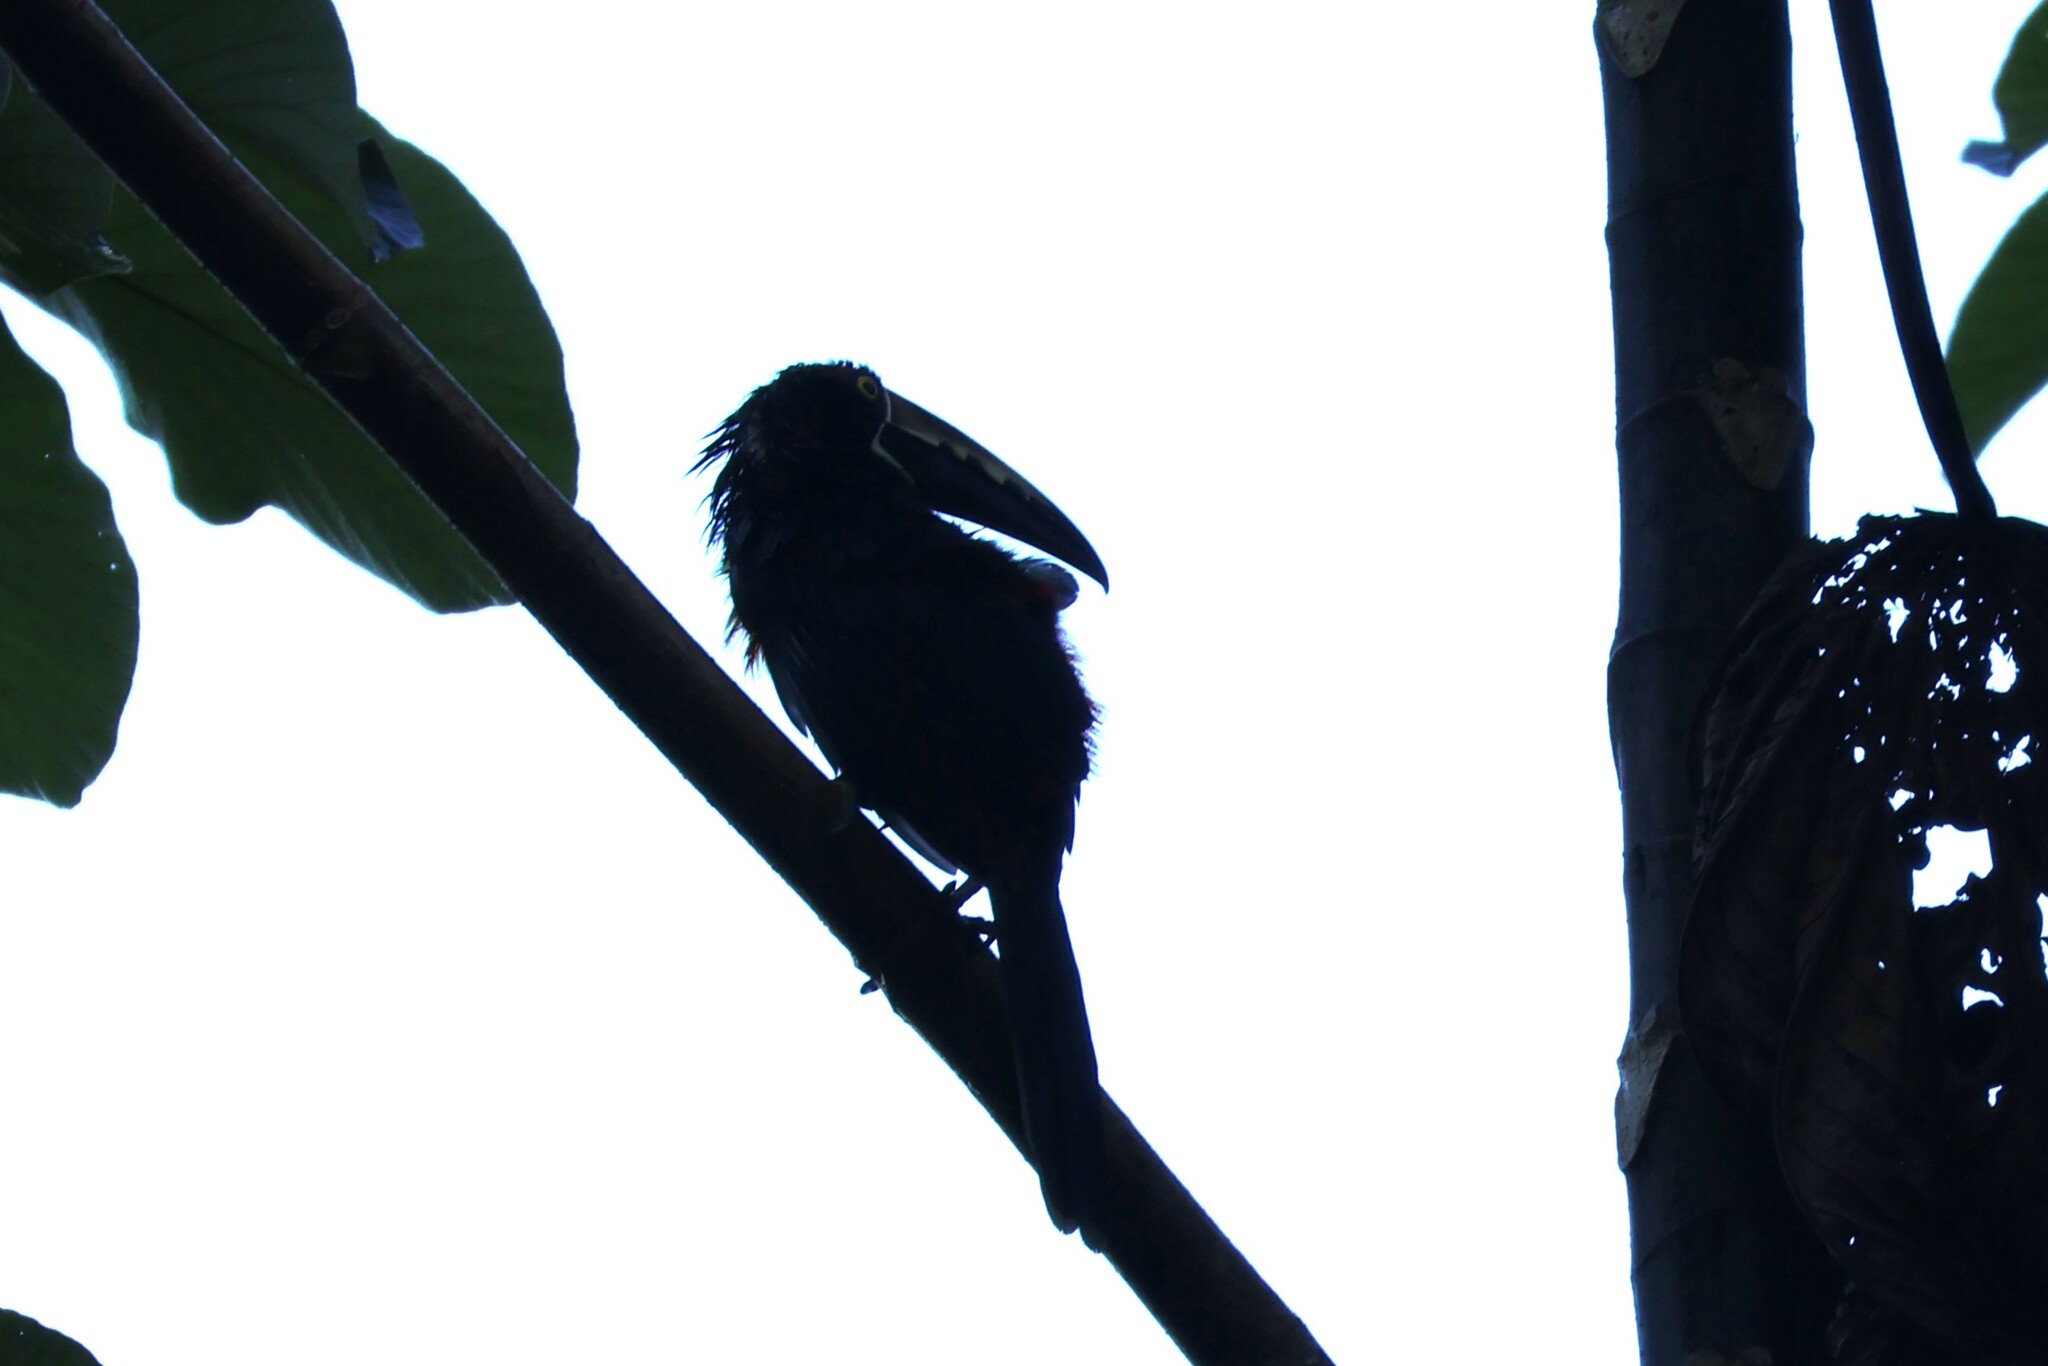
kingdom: Animalia
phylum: Chordata
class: Aves
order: Piciformes
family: Ramphastidae
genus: Pteroglossus
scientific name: Pteroglossus torquatus
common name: Collared aracari
